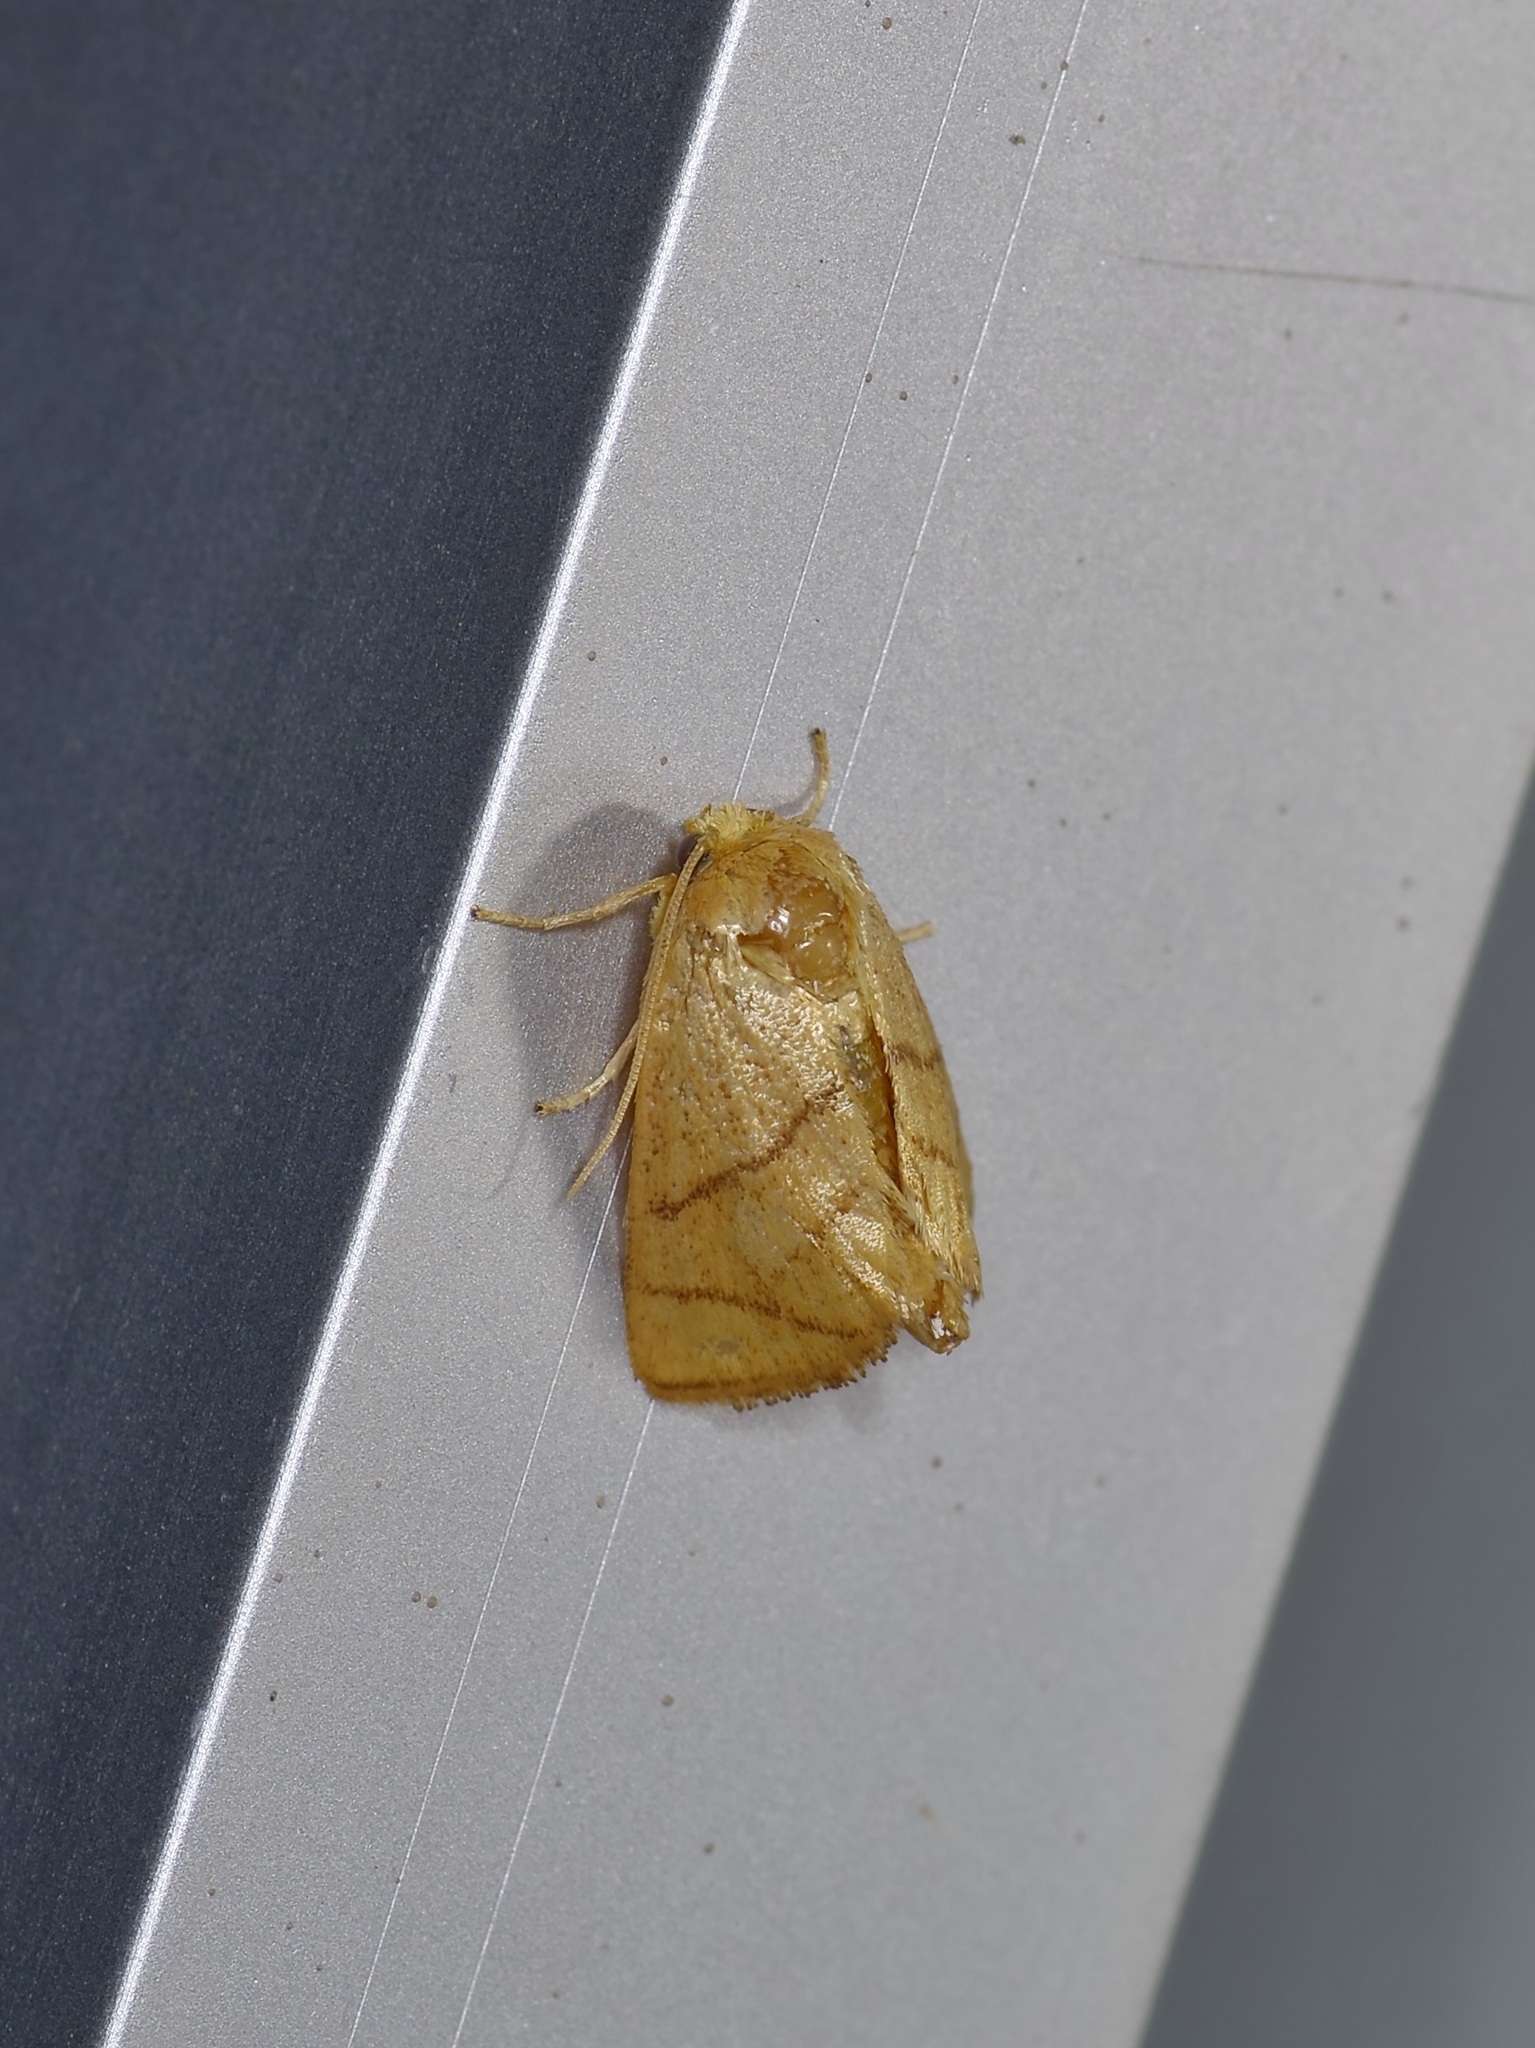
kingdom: Animalia
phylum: Arthropoda
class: Insecta
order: Lepidoptera
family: Limacodidae
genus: Apoda
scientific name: Apoda y-inversa
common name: Yellow-collared slug moth
